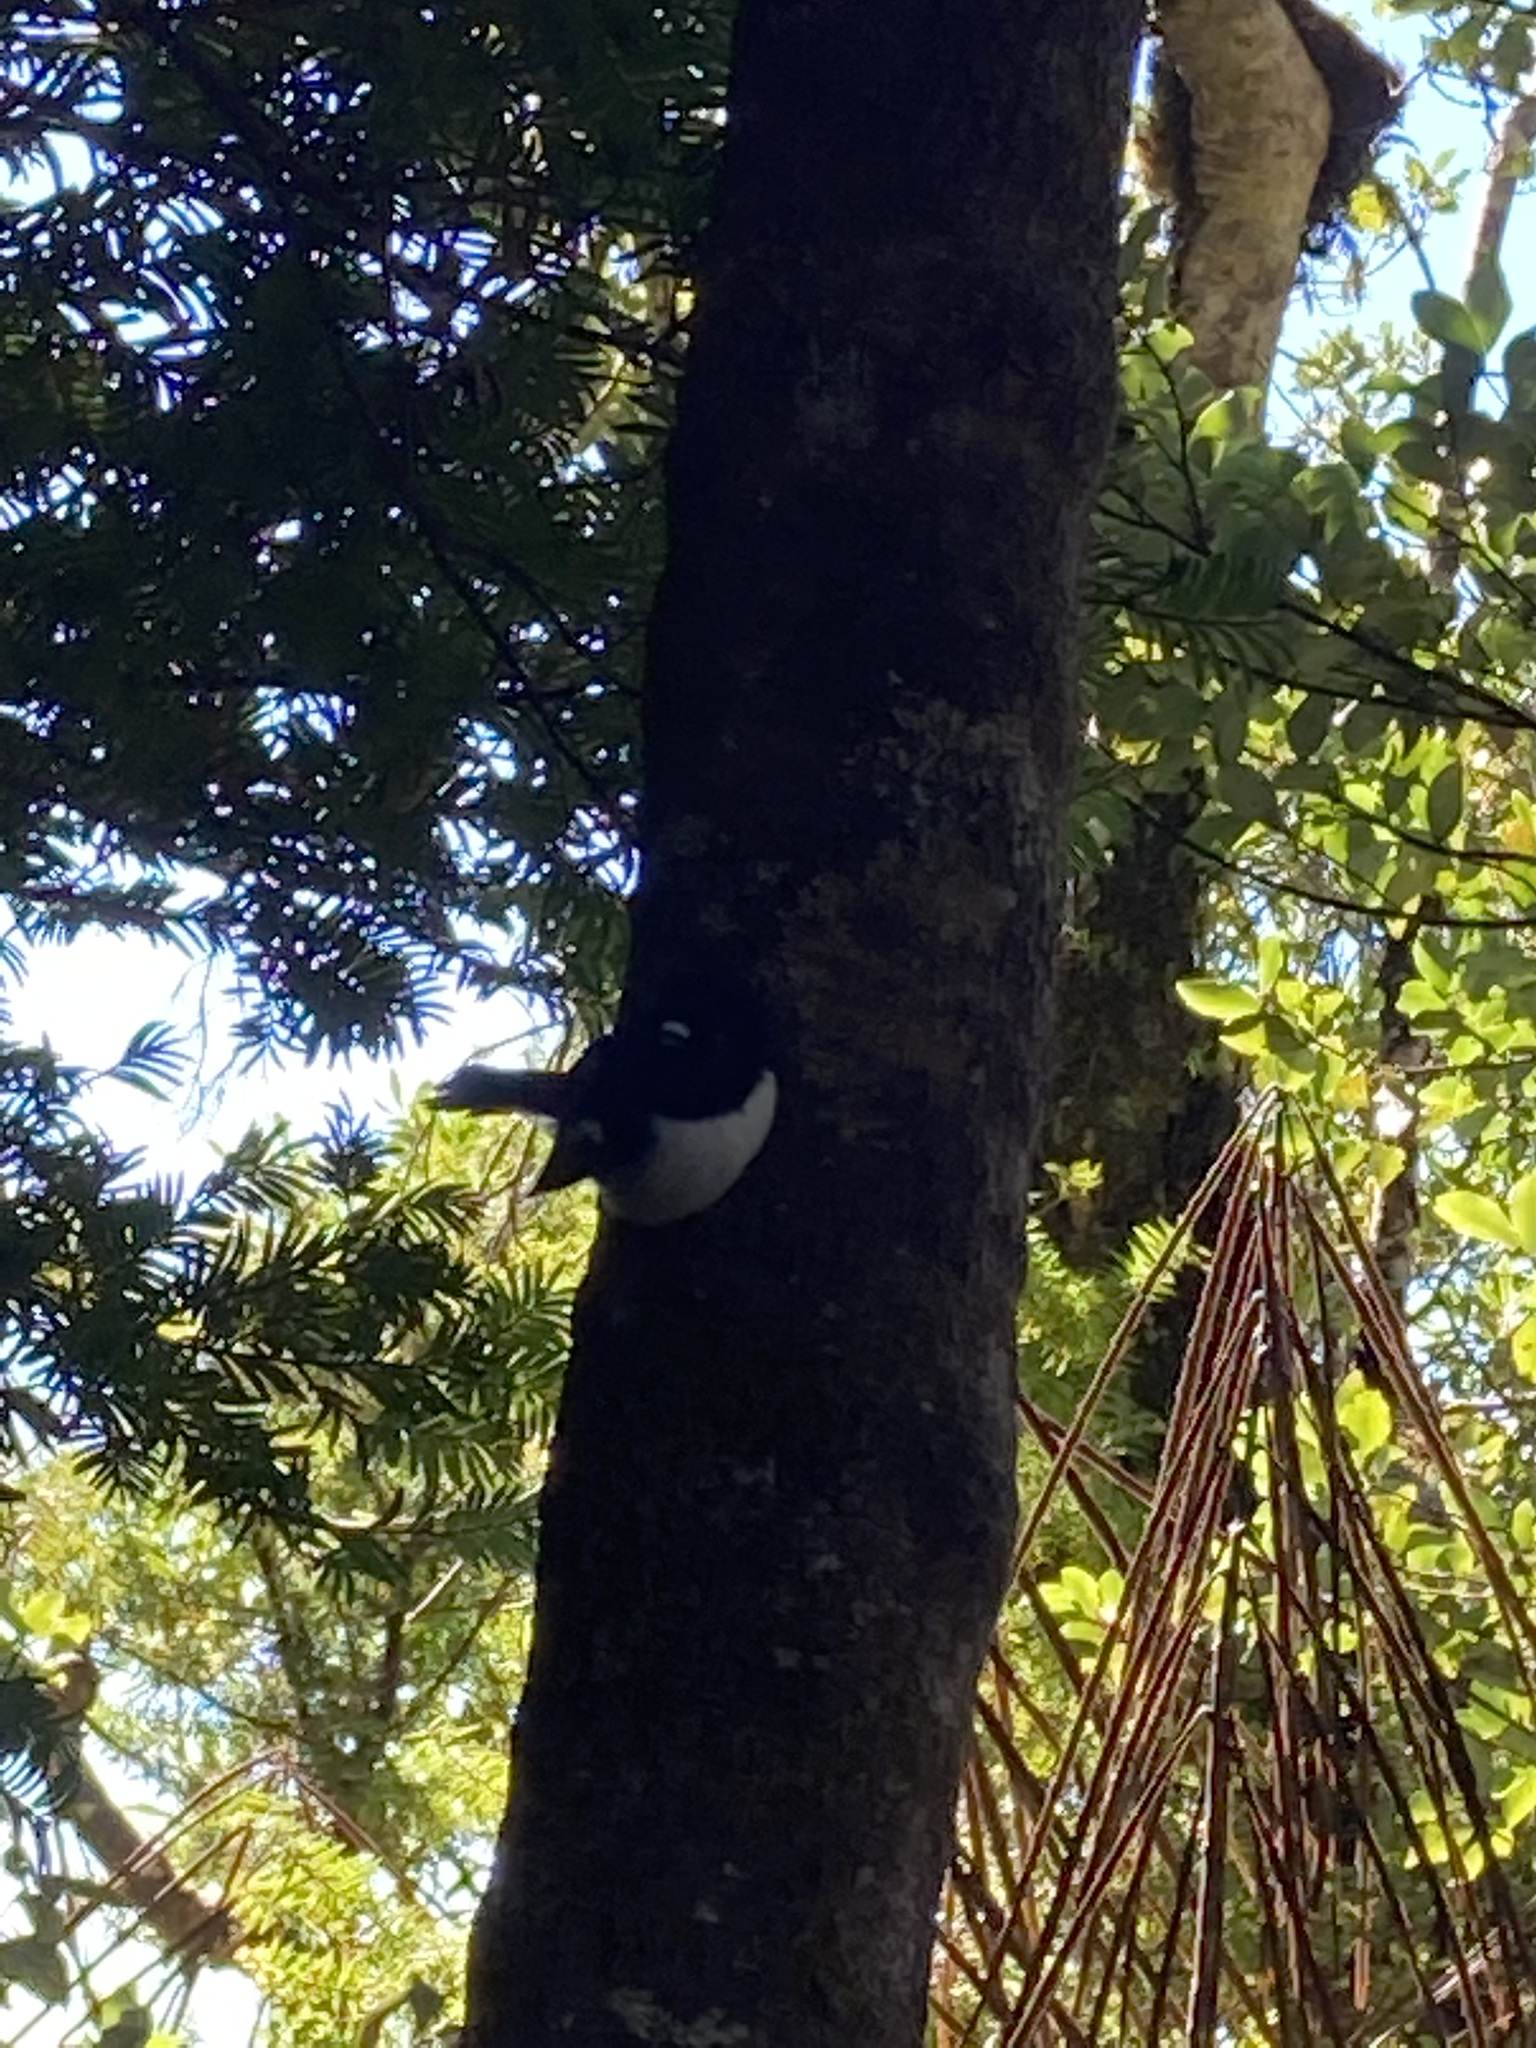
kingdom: Animalia
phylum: Chordata
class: Aves
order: Passeriformes
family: Petroicidae
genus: Petroica
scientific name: Petroica macrocephala
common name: Tomtit
